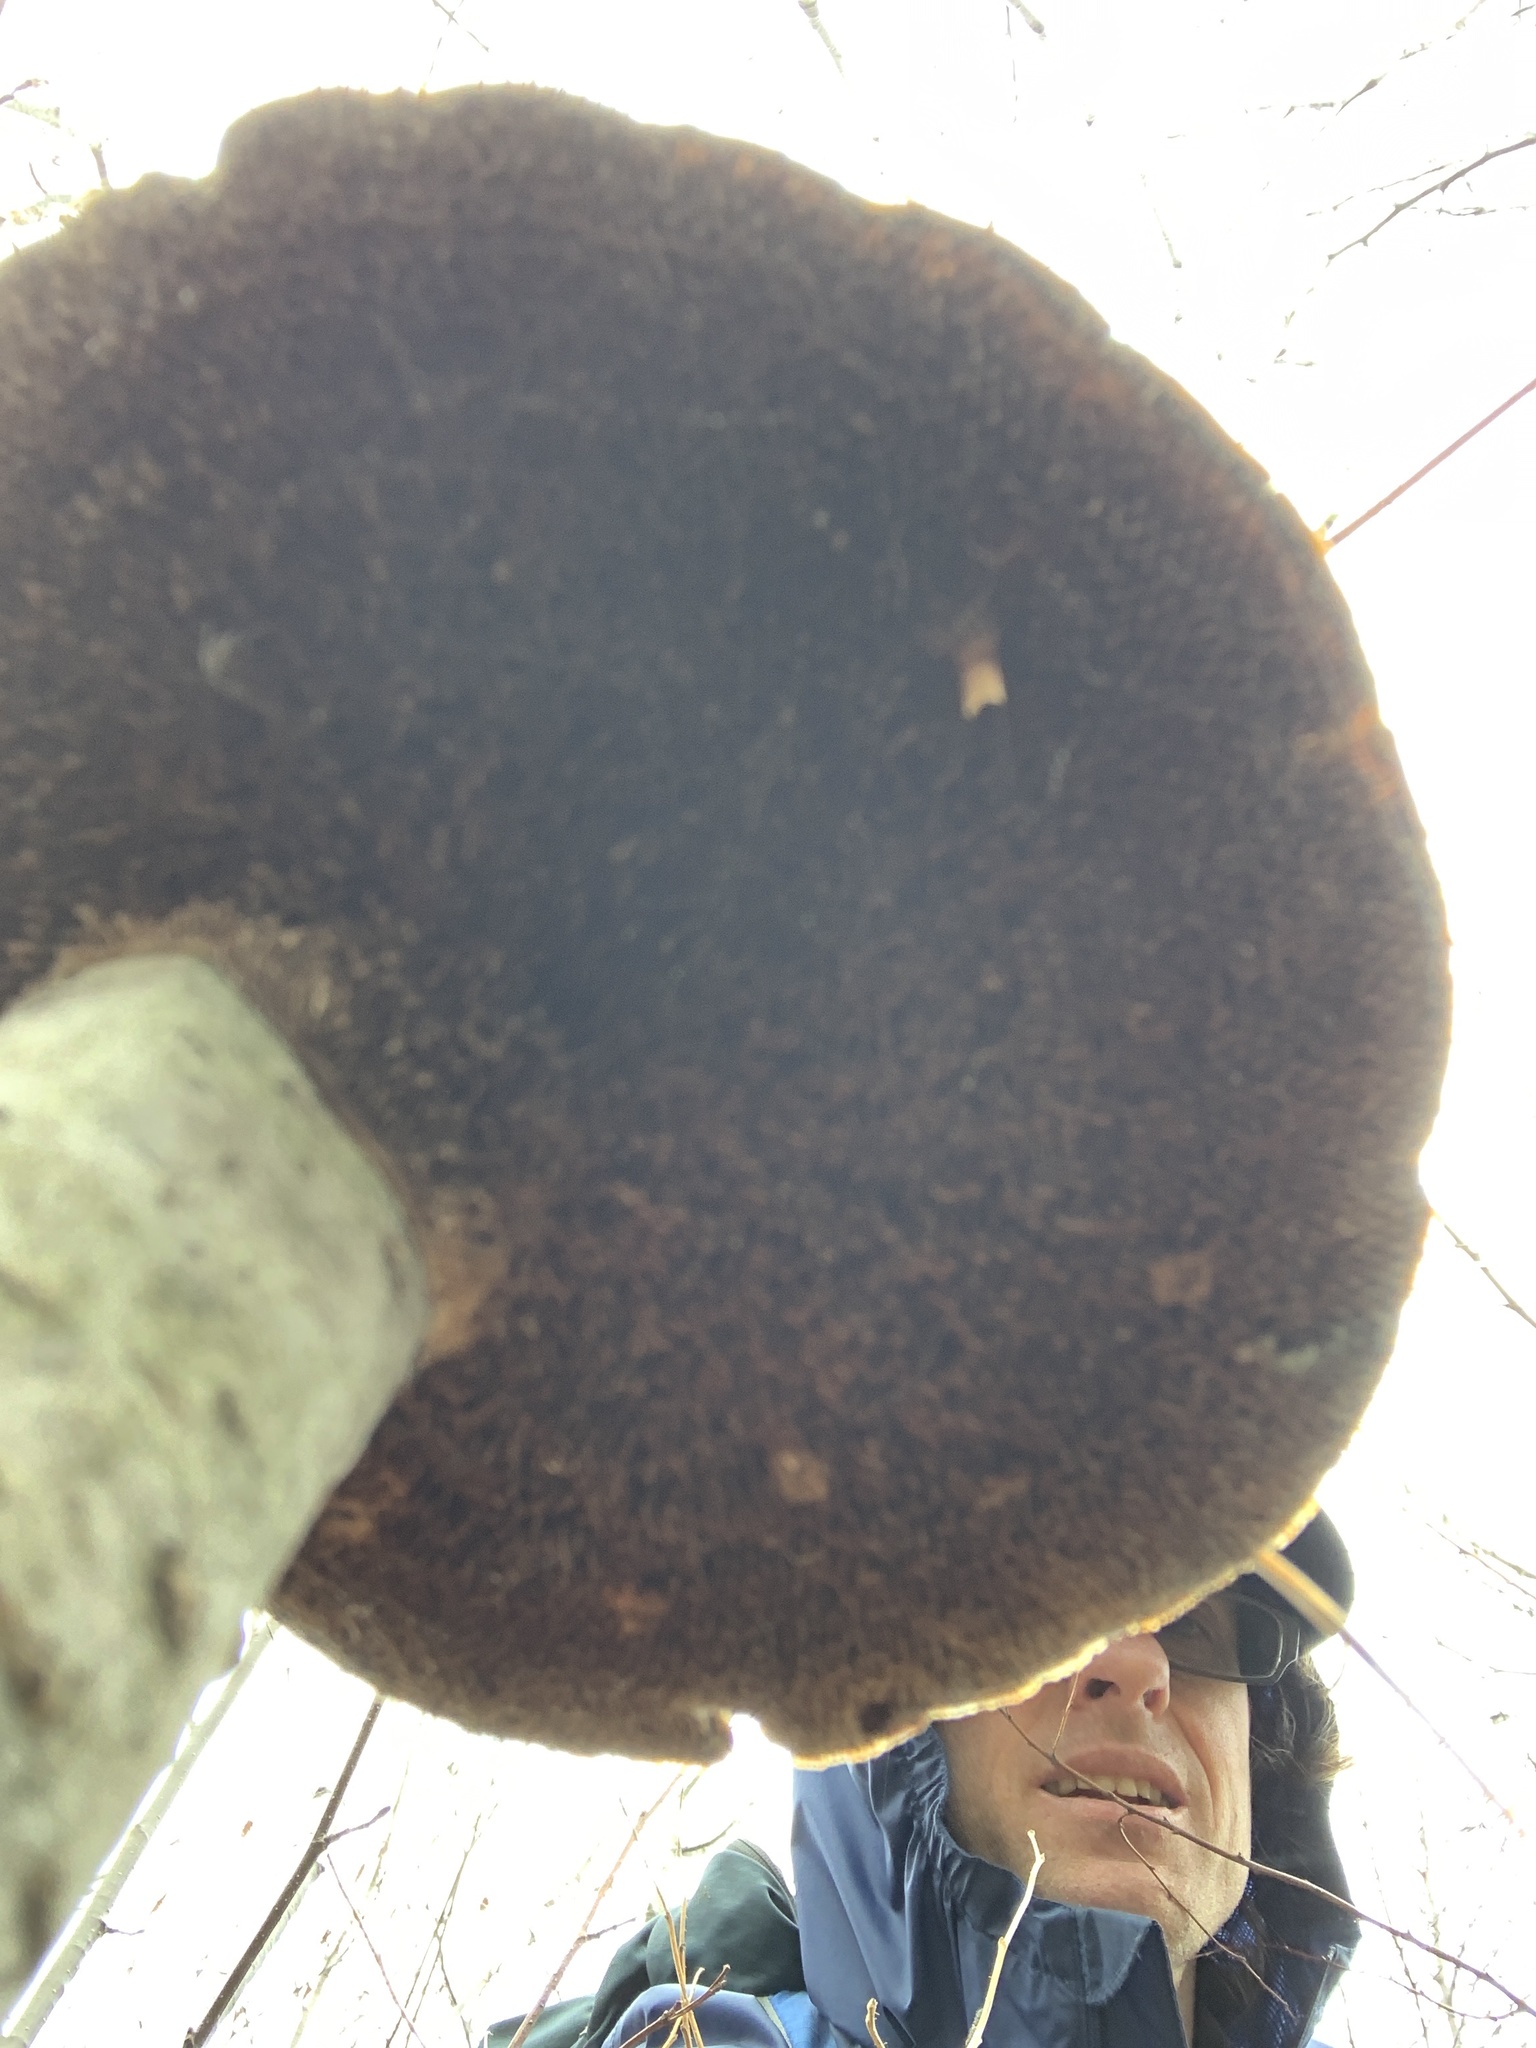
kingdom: Fungi
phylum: Basidiomycota
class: Agaricomycetes
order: Polyporales
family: Polyporaceae
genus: Daedaleopsis
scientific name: Daedaleopsis confragosa
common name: Blushing bracket
